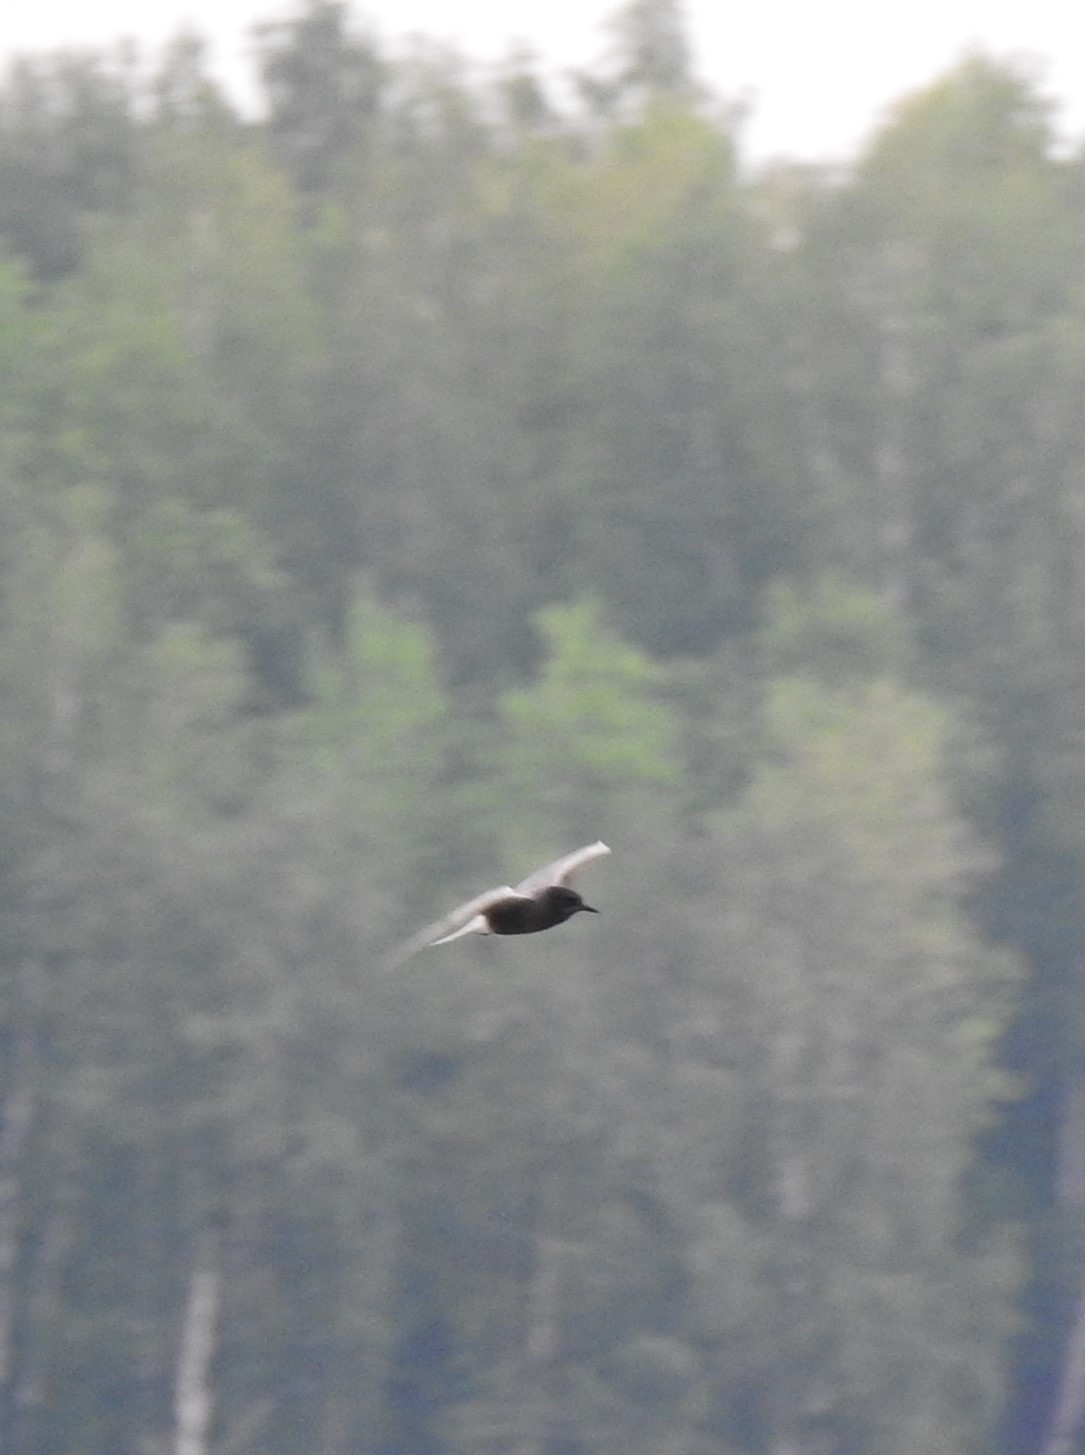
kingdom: Animalia
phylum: Chordata
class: Aves
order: Charadriiformes
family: Laridae
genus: Chlidonias
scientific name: Chlidonias niger
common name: Black tern
